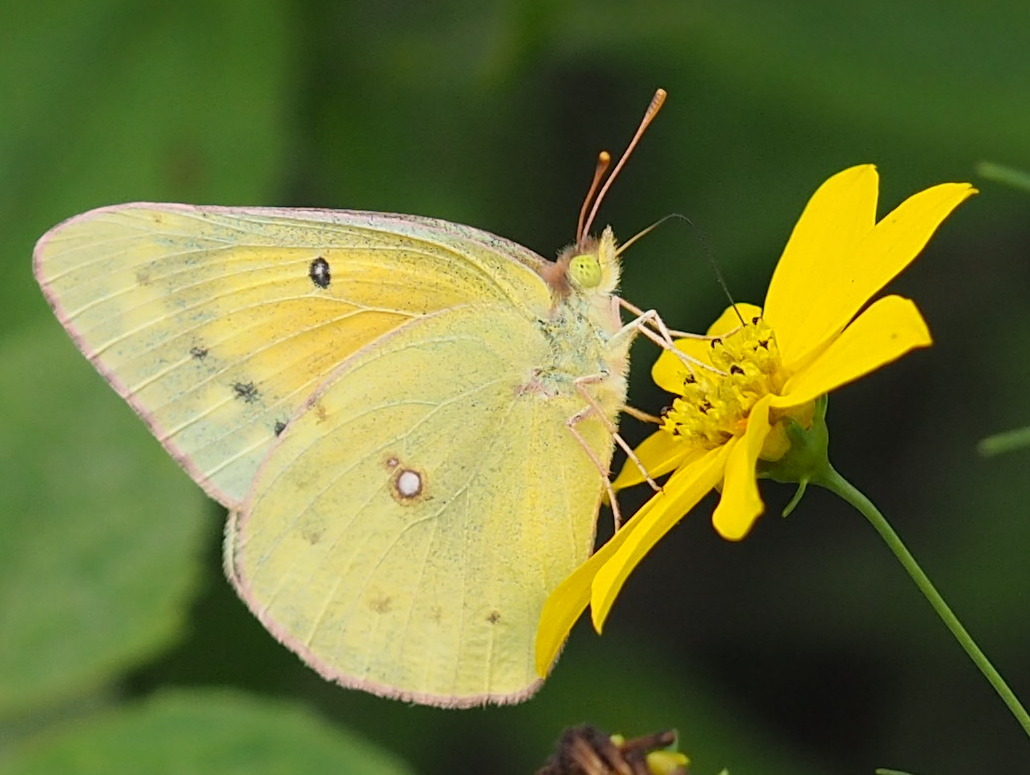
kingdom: Animalia
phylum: Arthropoda
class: Insecta
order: Lepidoptera
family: Pieridae
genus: Colias
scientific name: Colias eurytheme
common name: Alfalfa butterfly
